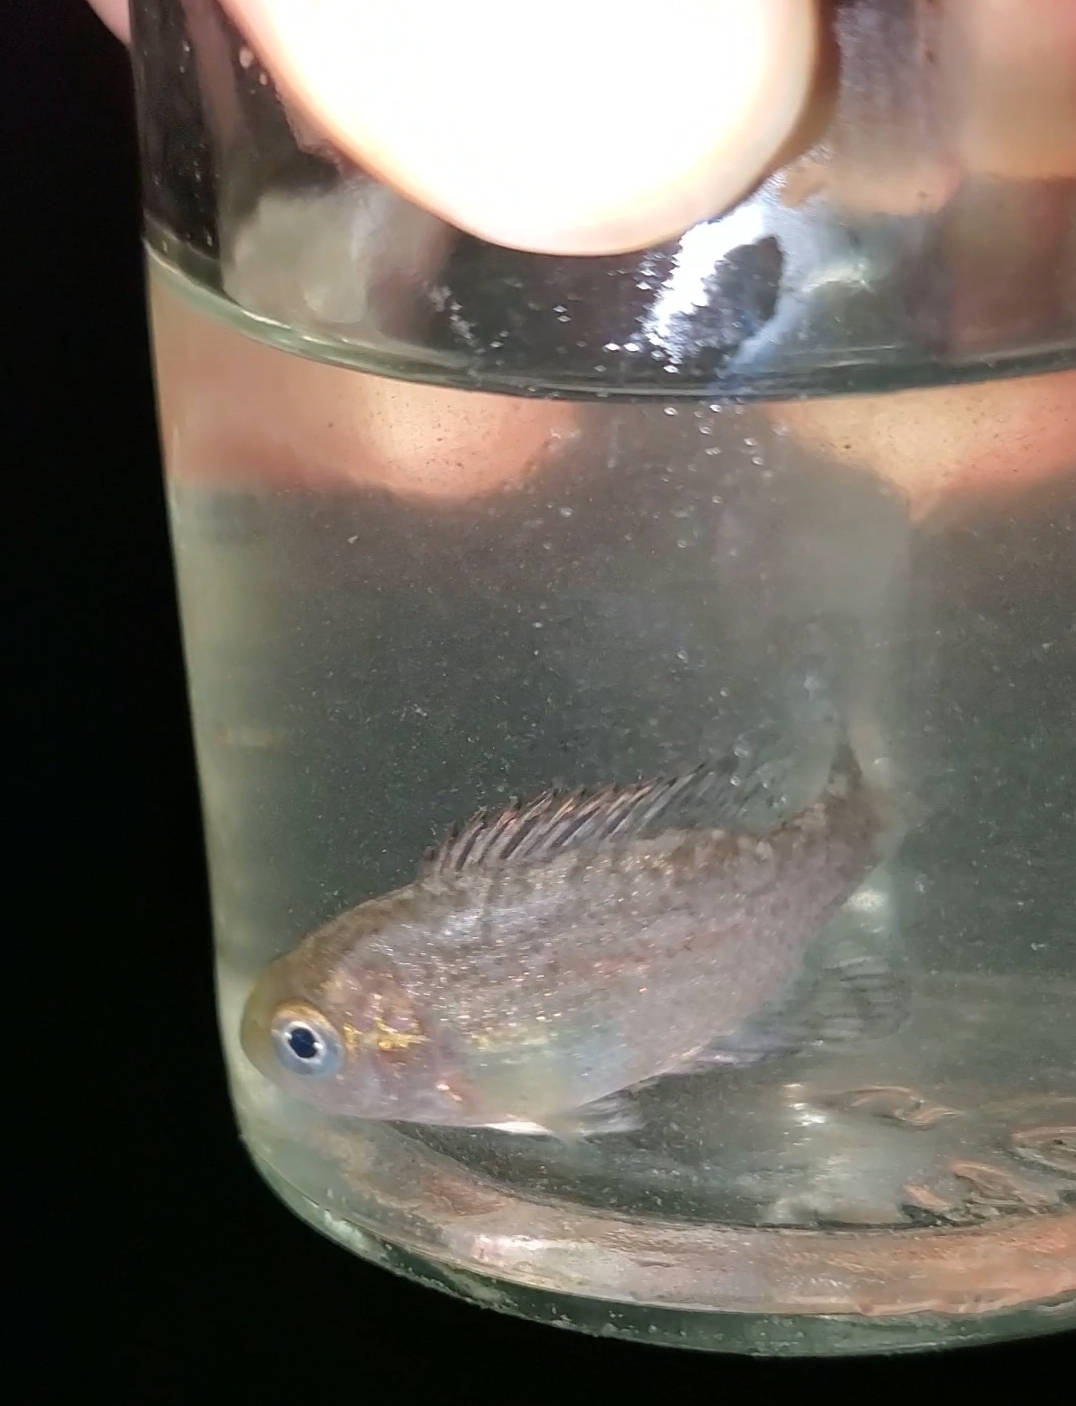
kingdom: Animalia
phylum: Chordata
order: Perciformes
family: Centrarchidae
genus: Ambloplites
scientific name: Ambloplites rupestris
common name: Rock bass
